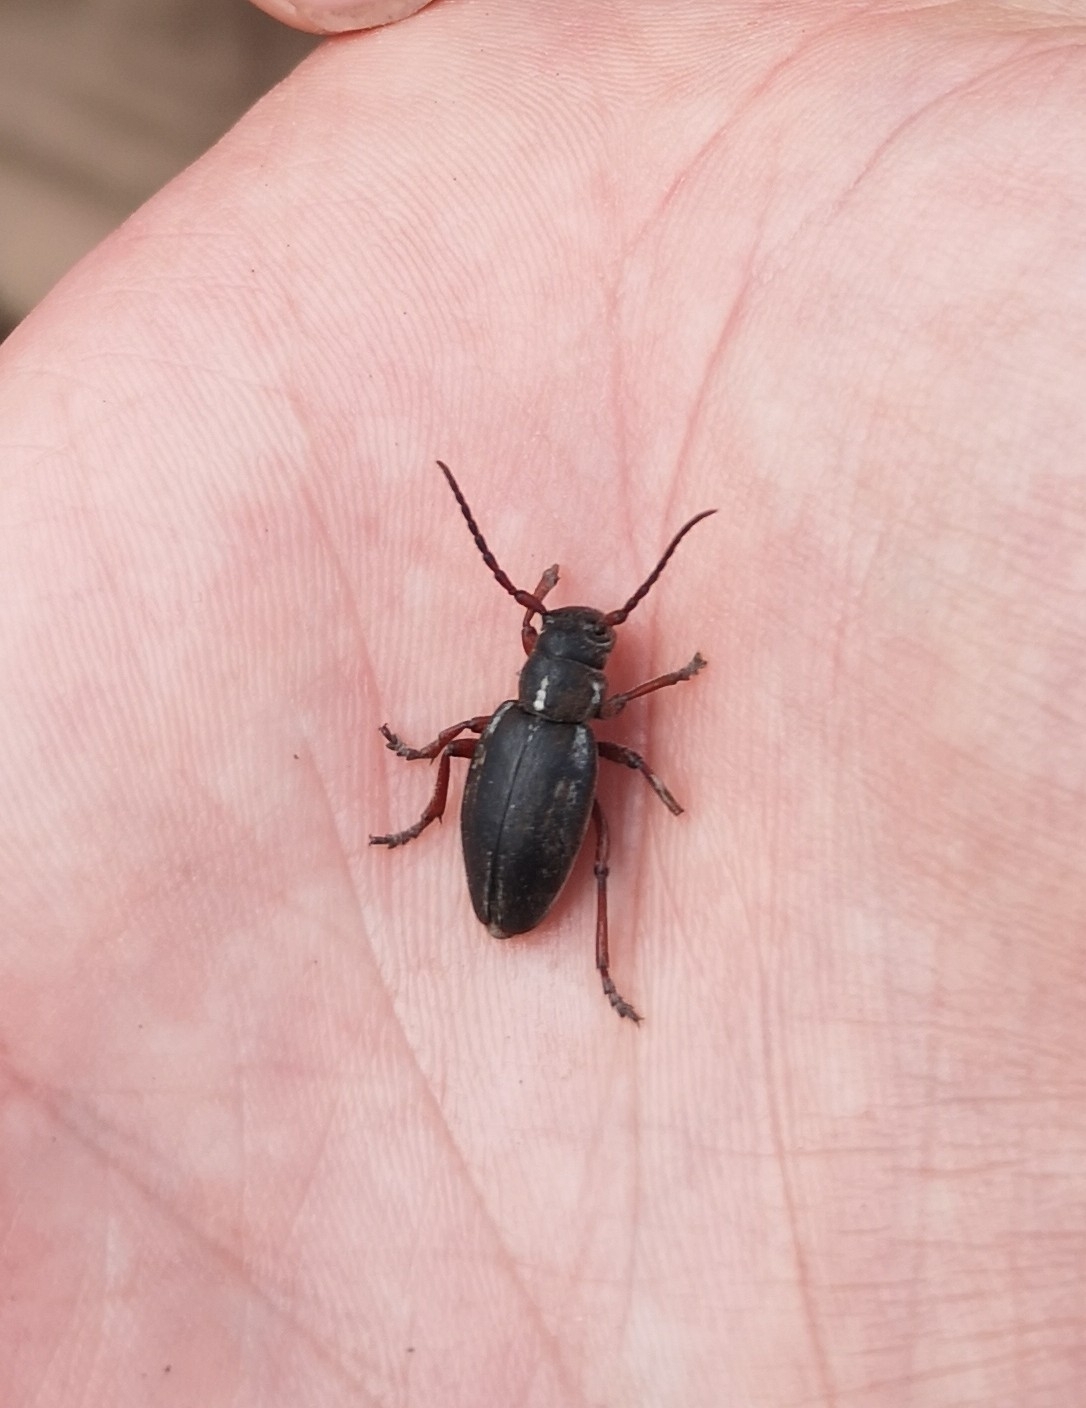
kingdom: Animalia
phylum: Arthropoda
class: Insecta
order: Coleoptera
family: Cerambycidae
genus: Dorcadion
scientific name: Dorcadion pedestre
